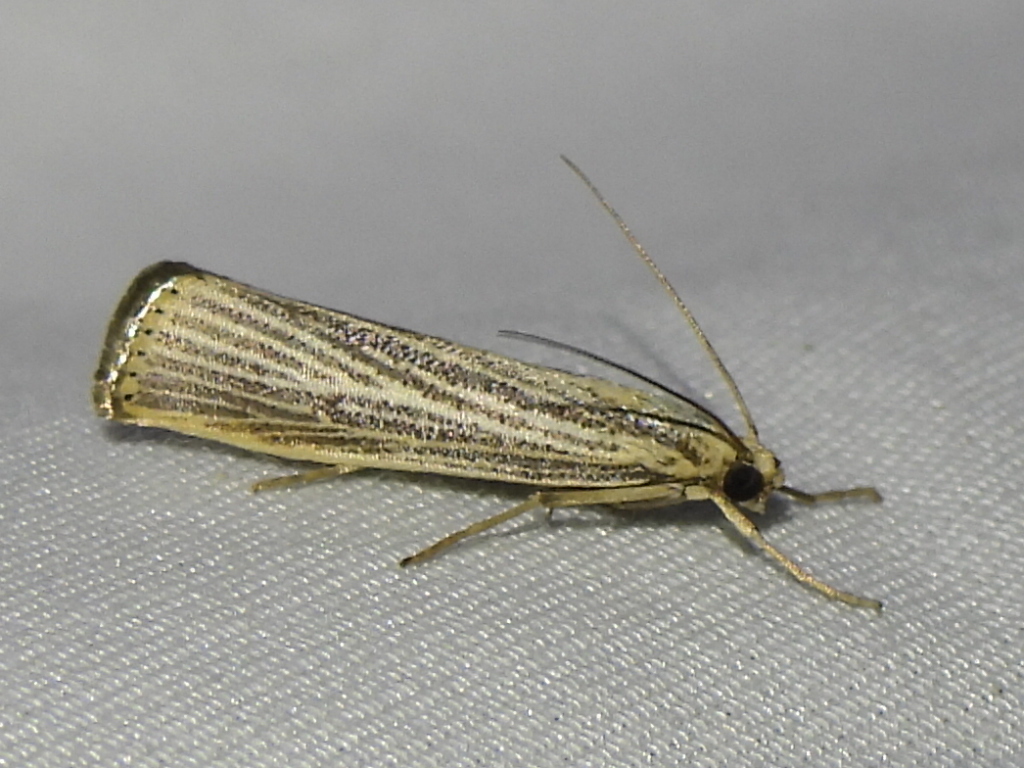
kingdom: Animalia
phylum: Arthropoda
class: Insecta
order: Lepidoptera
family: Crambidae
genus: Agriphila
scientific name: Agriphila vulgivagellus
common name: Vagabond crambus moth
